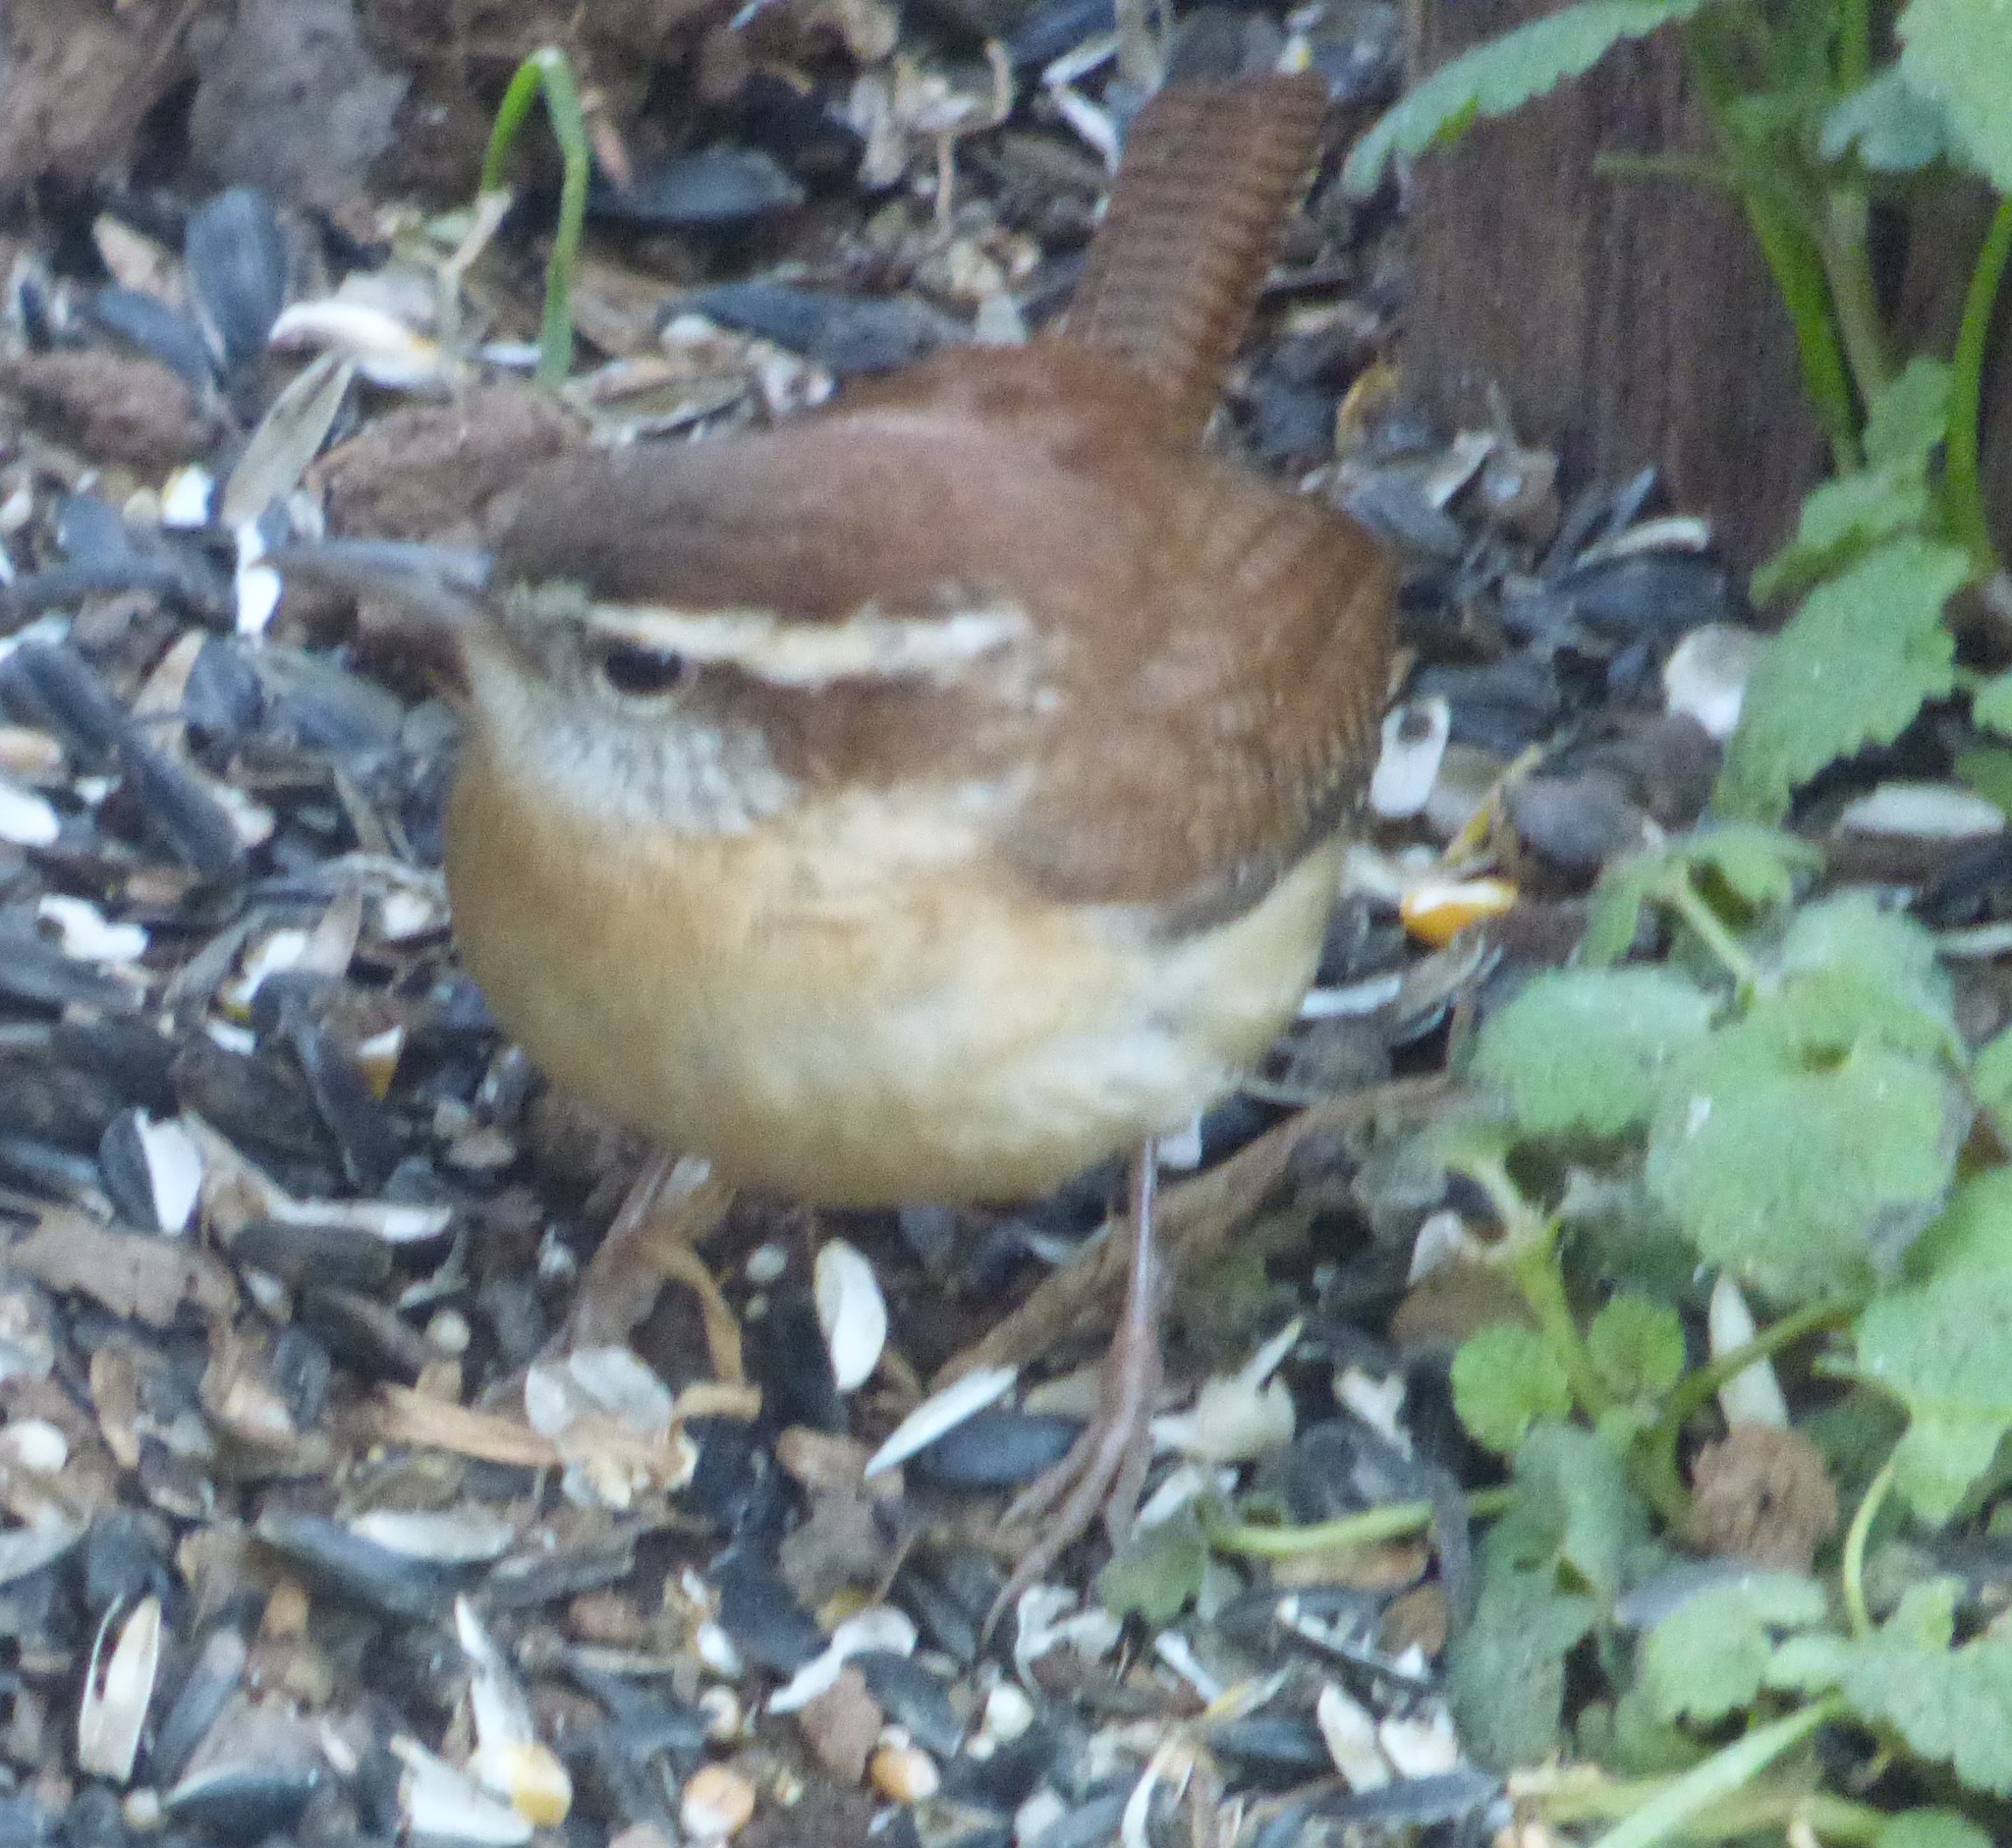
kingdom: Animalia
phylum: Chordata
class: Aves
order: Passeriformes
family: Troglodytidae
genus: Thryothorus
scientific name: Thryothorus ludovicianus
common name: Carolina wren
